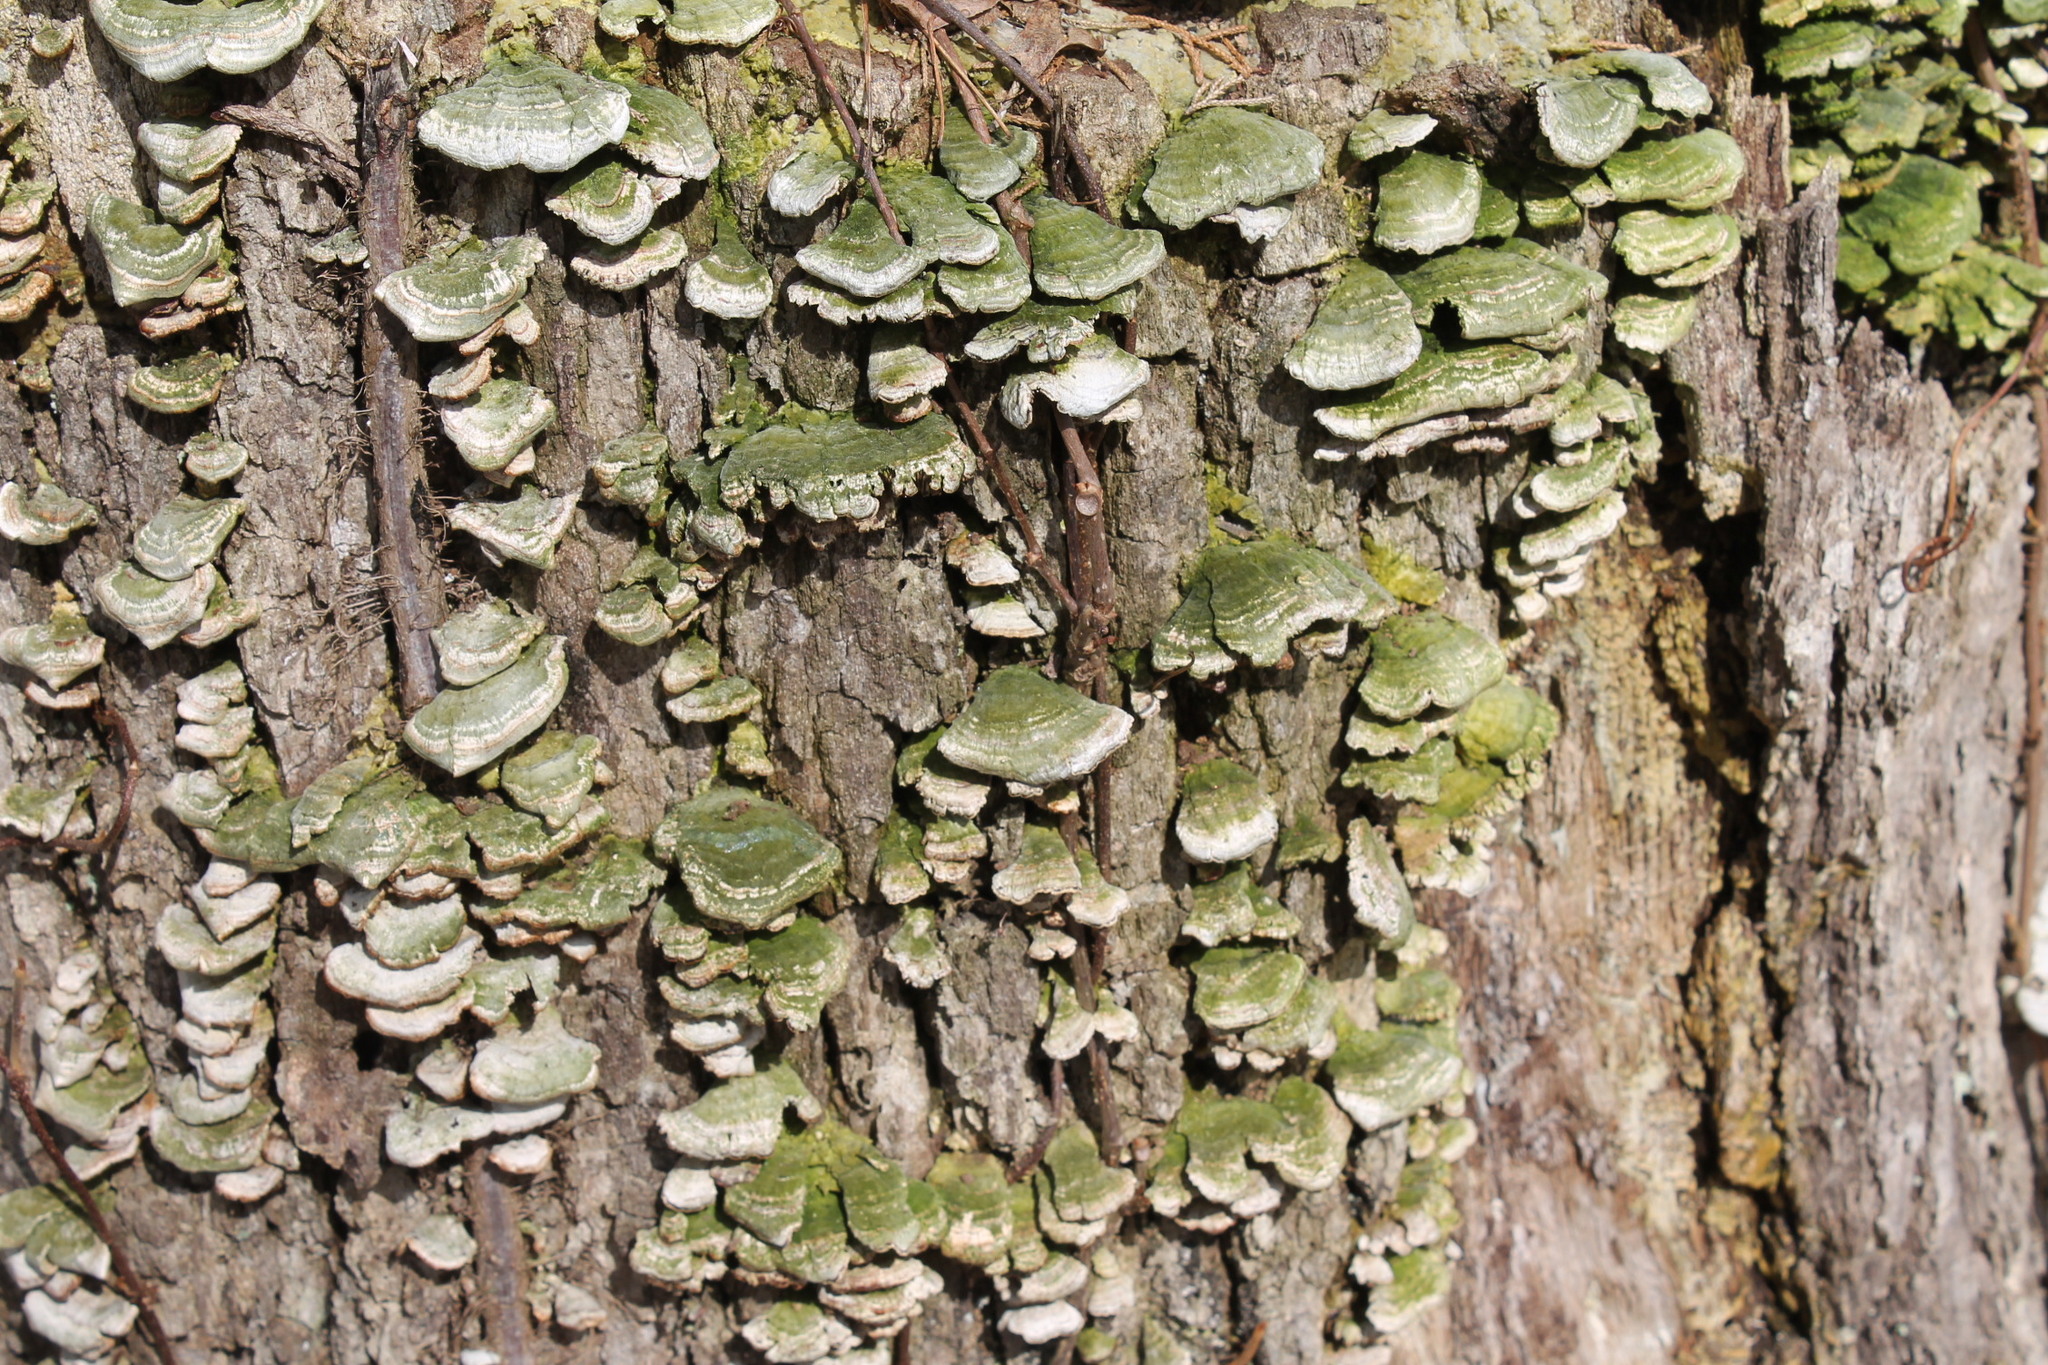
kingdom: Fungi
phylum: Basidiomycota
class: Agaricomycetes
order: Hymenochaetales
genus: Trichaptum
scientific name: Trichaptum abietinum
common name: Purplepore bracket
